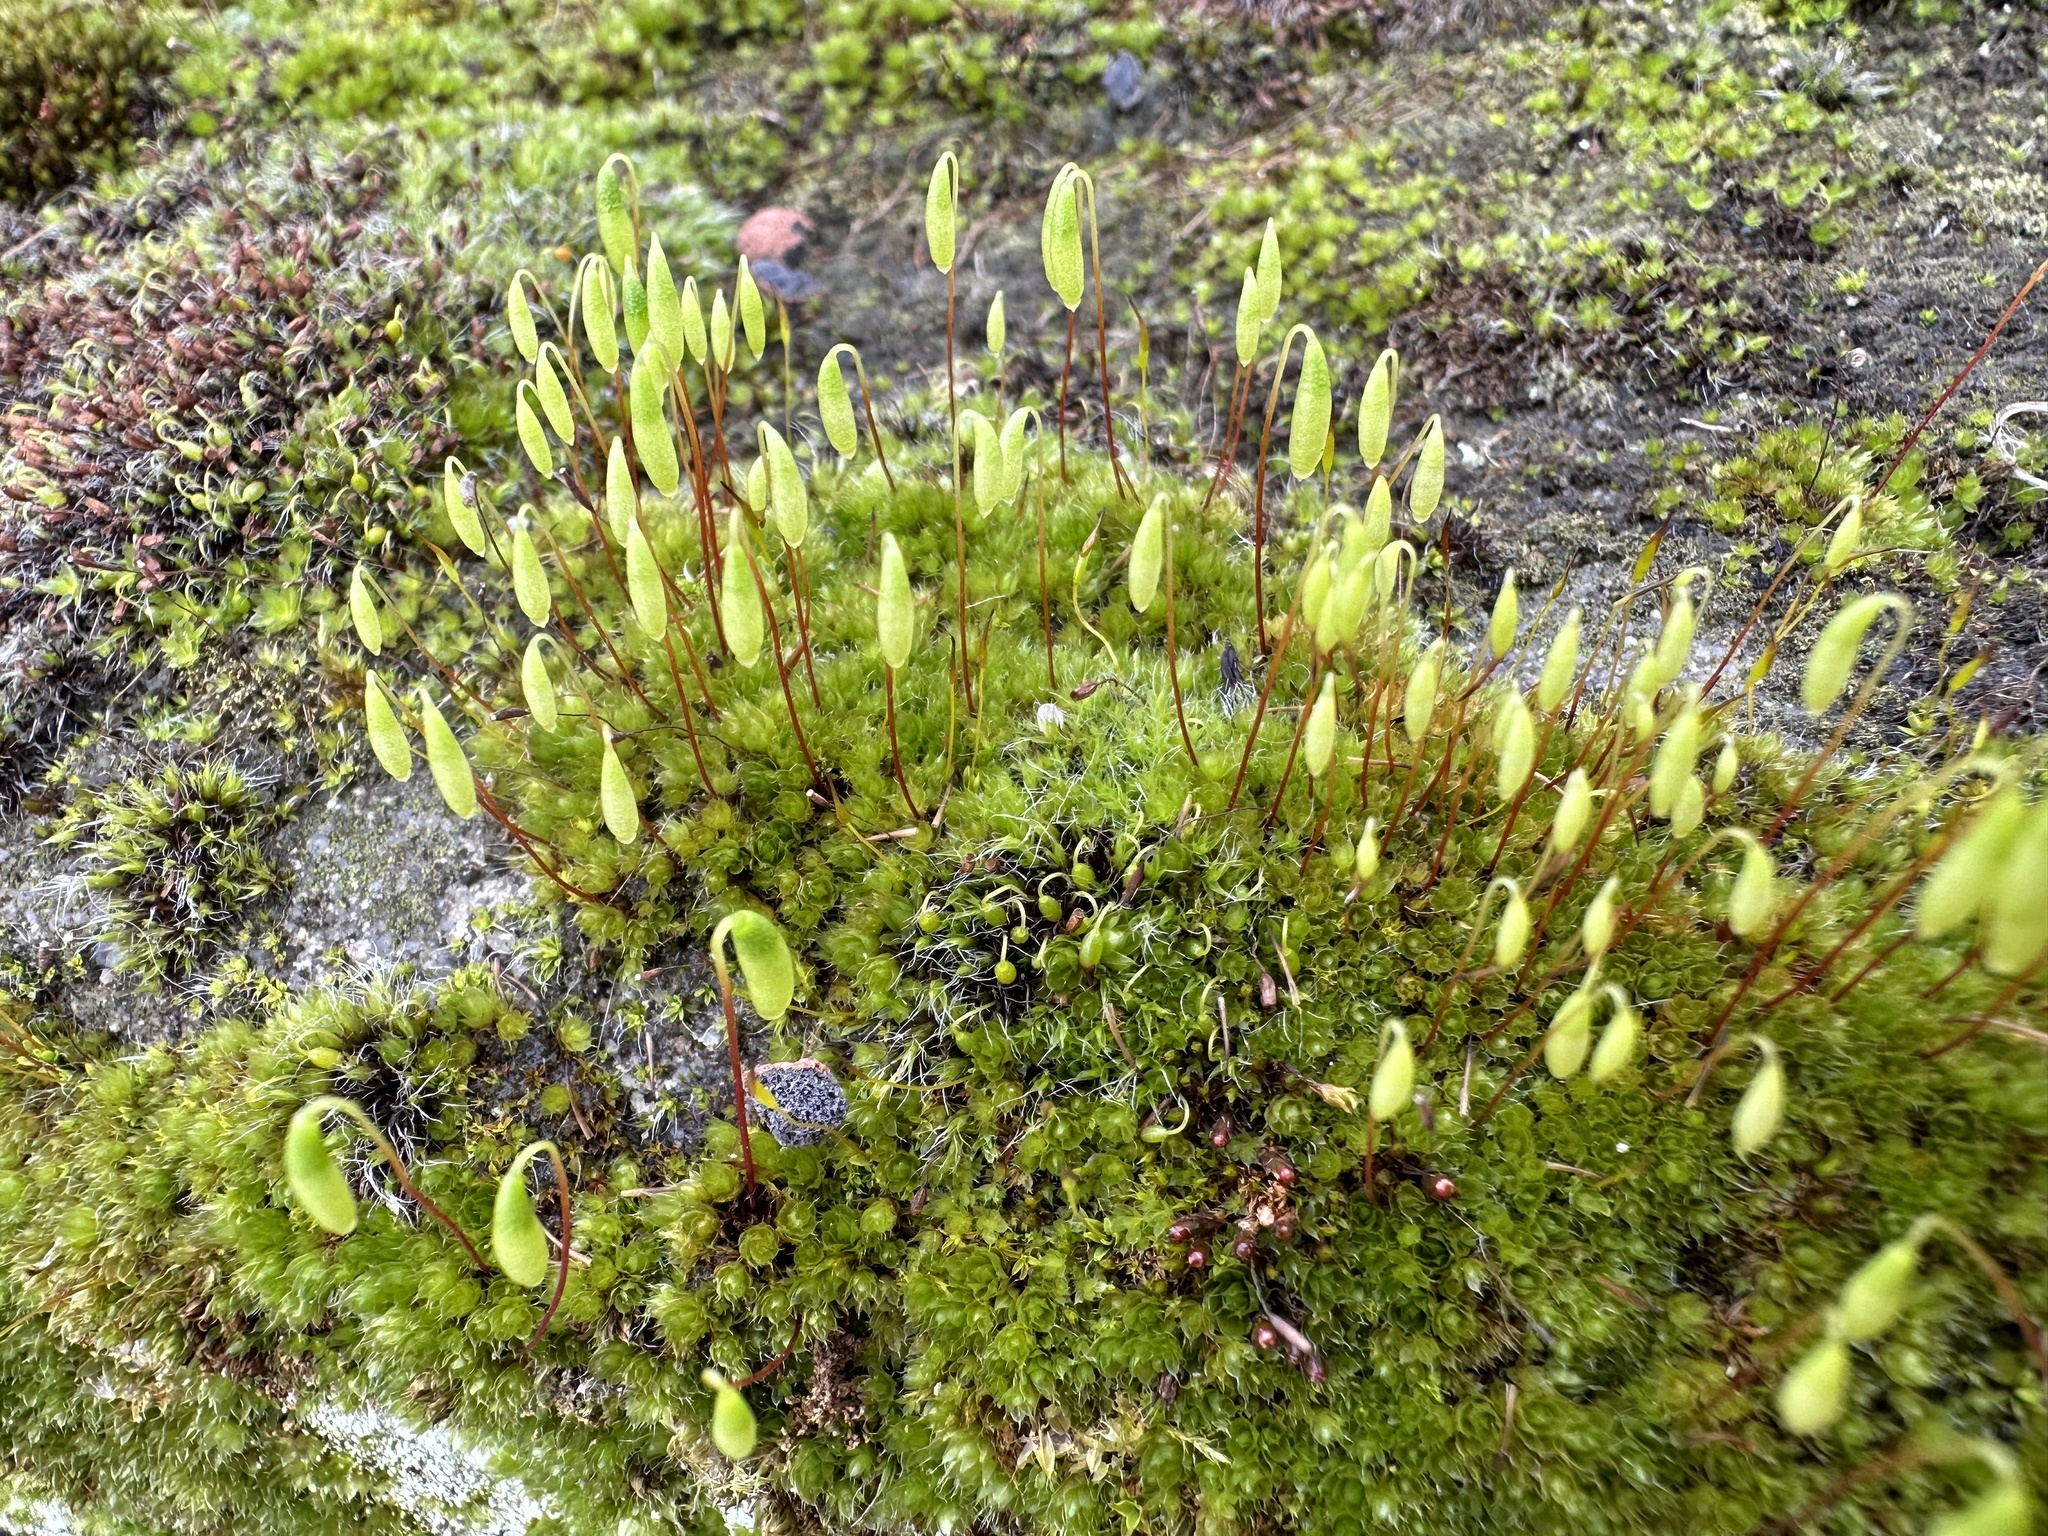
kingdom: Plantae
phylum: Bryophyta
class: Bryopsida
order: Bryales
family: Bryaceae
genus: Rosulabryum
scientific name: Rosulabryum capillare
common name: Capillary thread-moss
